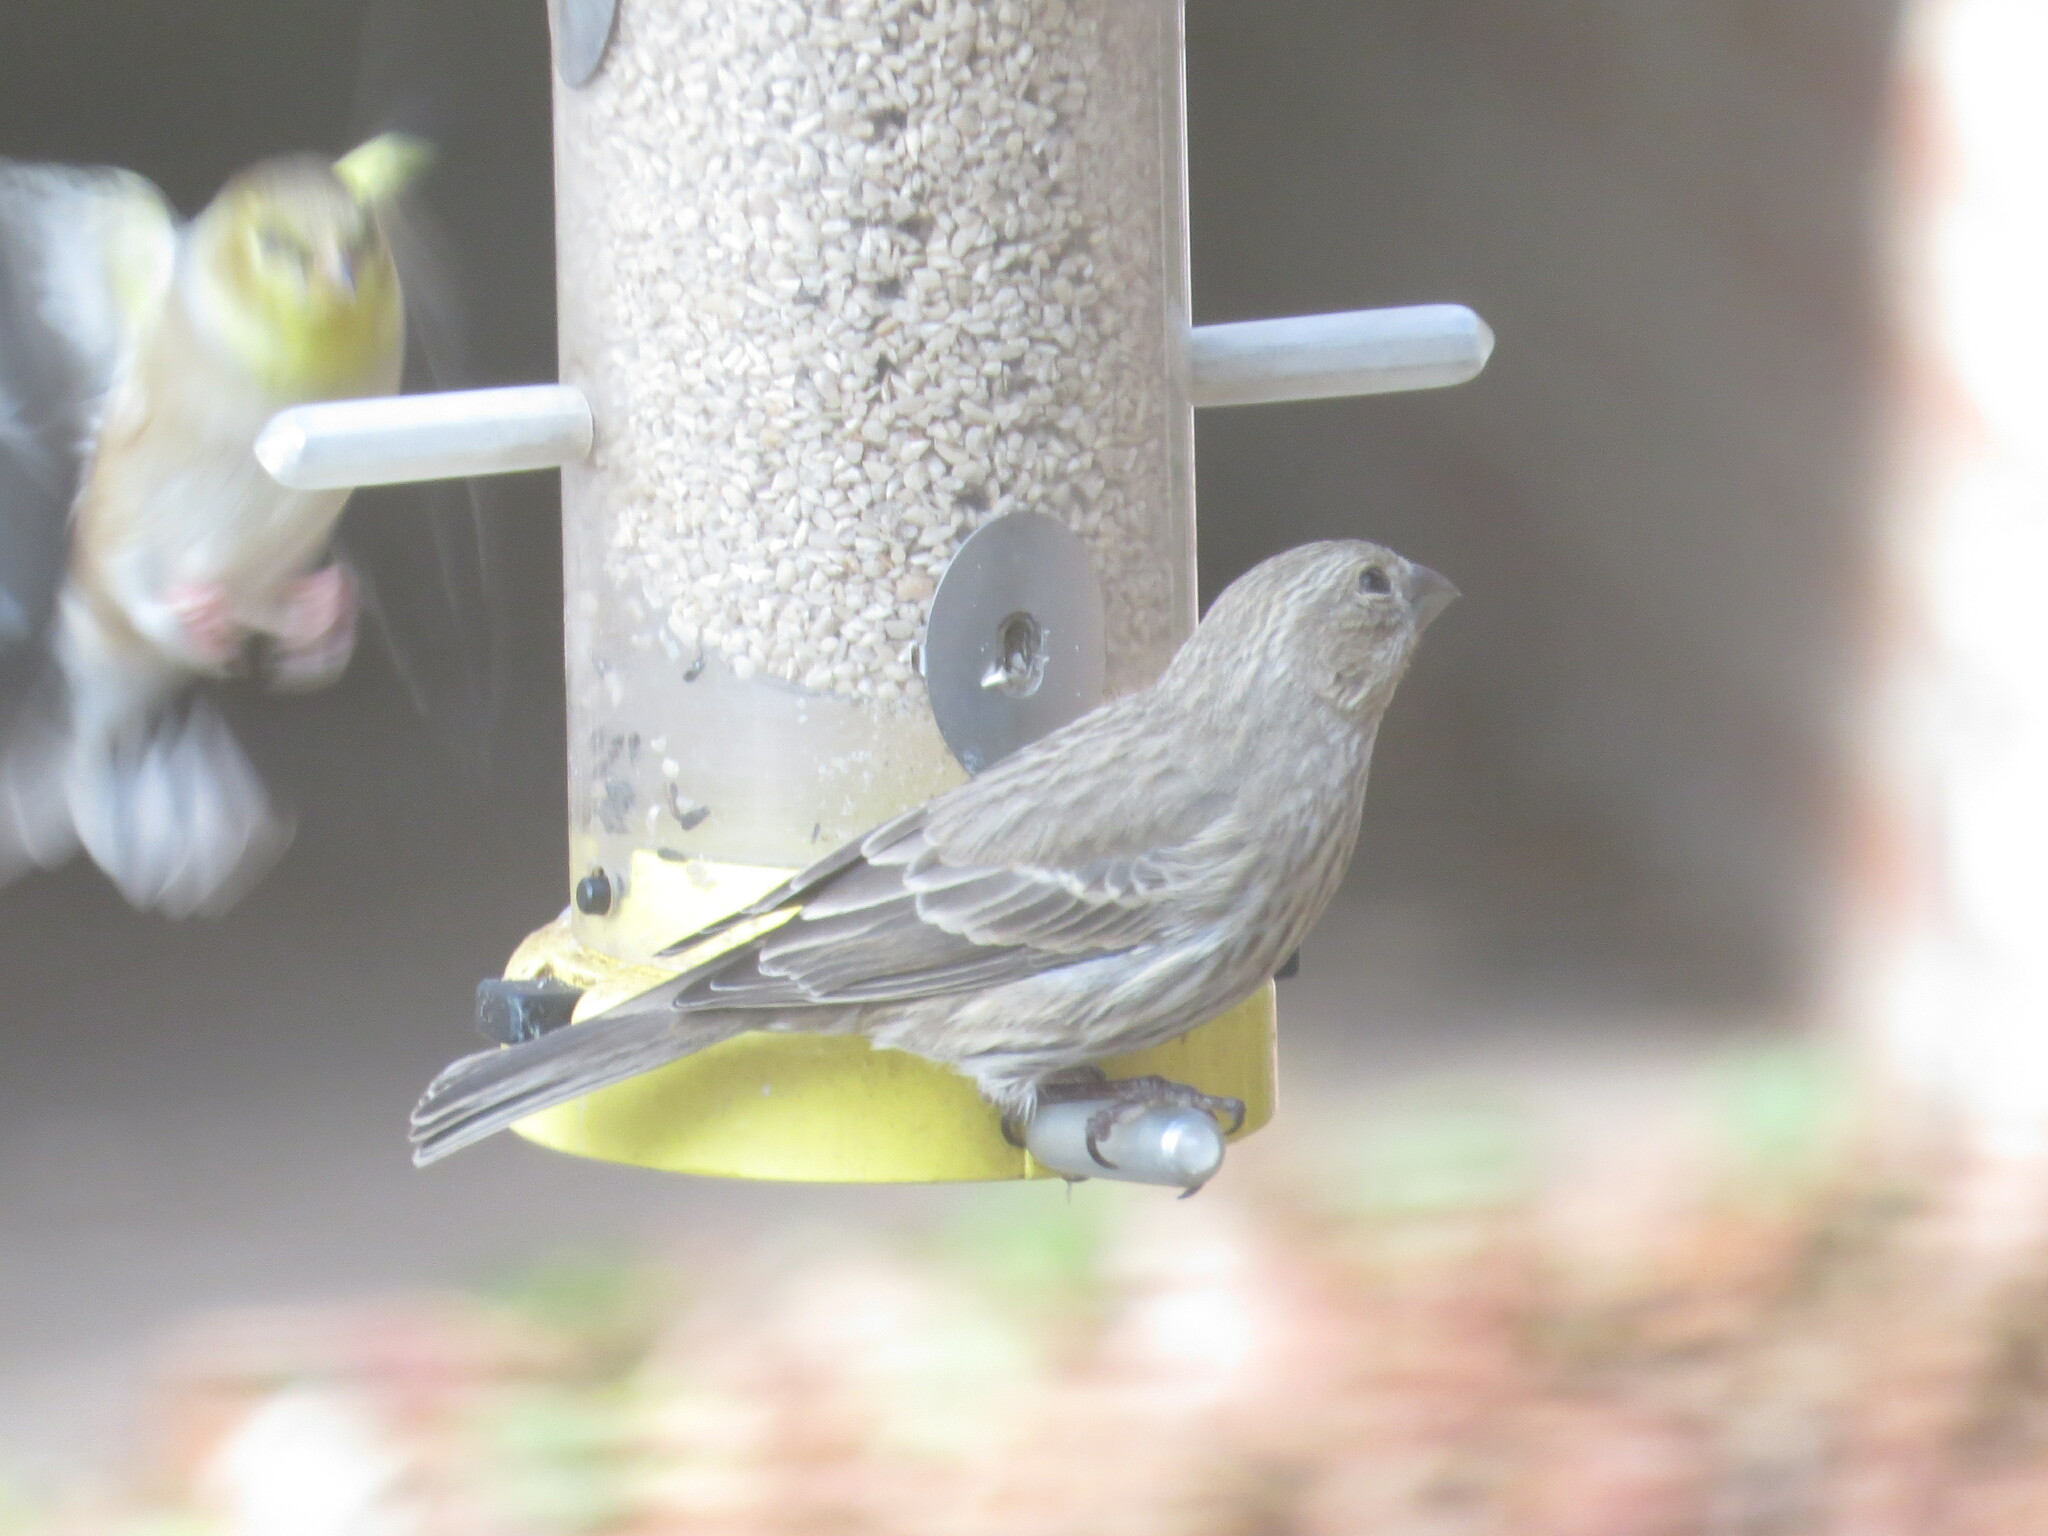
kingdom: Animalia
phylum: Chordata
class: Aves
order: Passeriformes
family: Fringillidae
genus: Haemorhous
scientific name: Haemorhous mexicanus
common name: House finch
